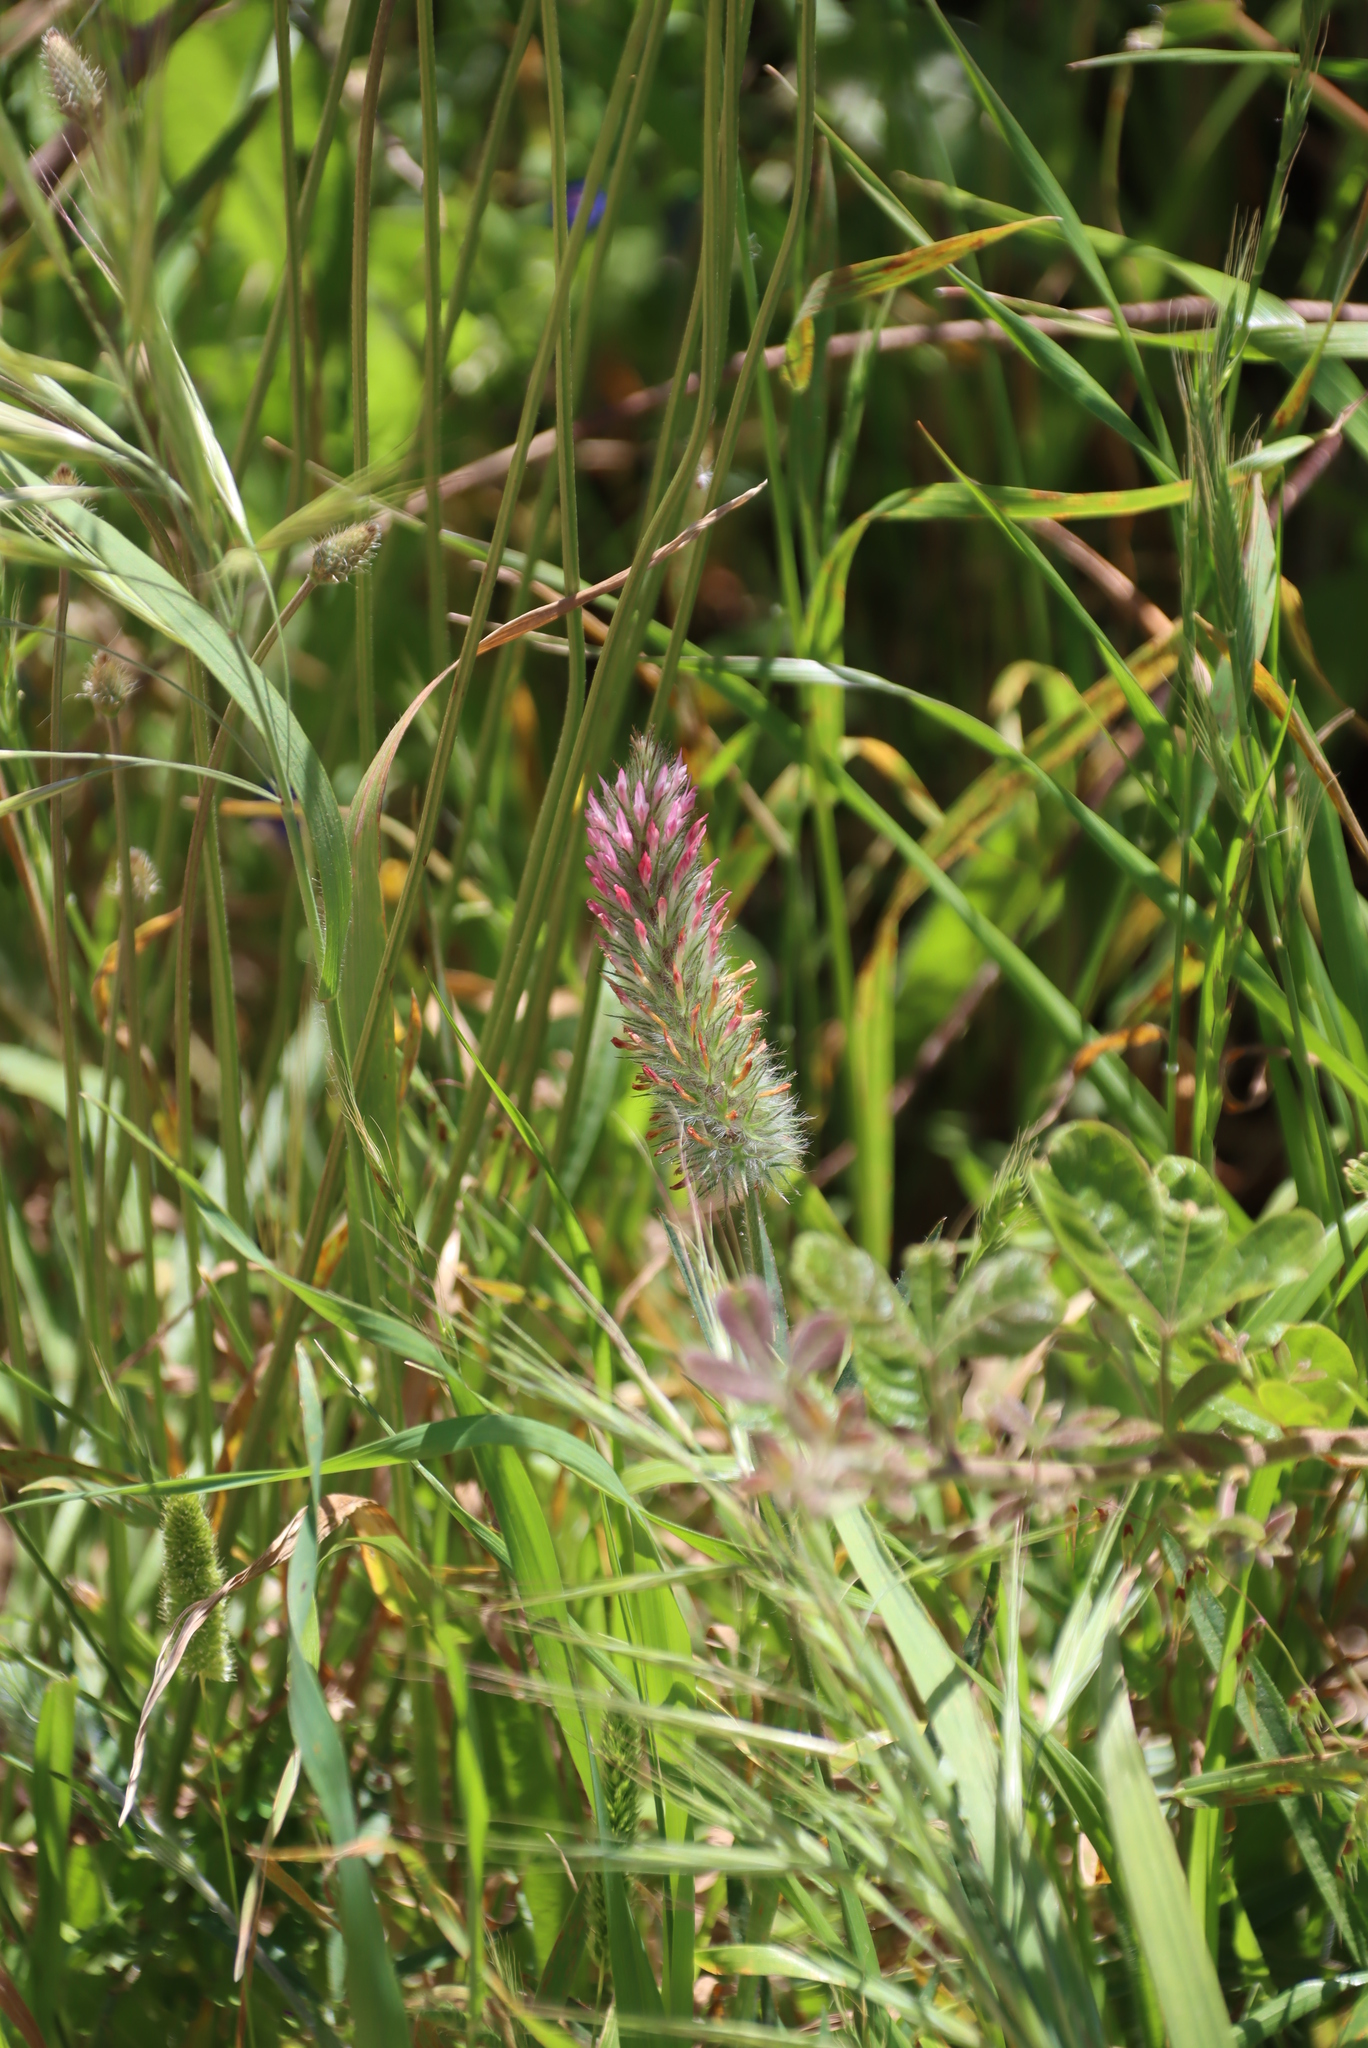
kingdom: Plantae
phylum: Tracheophyta
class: Magnoliopsida
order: Fabales
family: Fabaceae
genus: Trifolium
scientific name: Trifolium angustifolium
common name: Narrow clover
